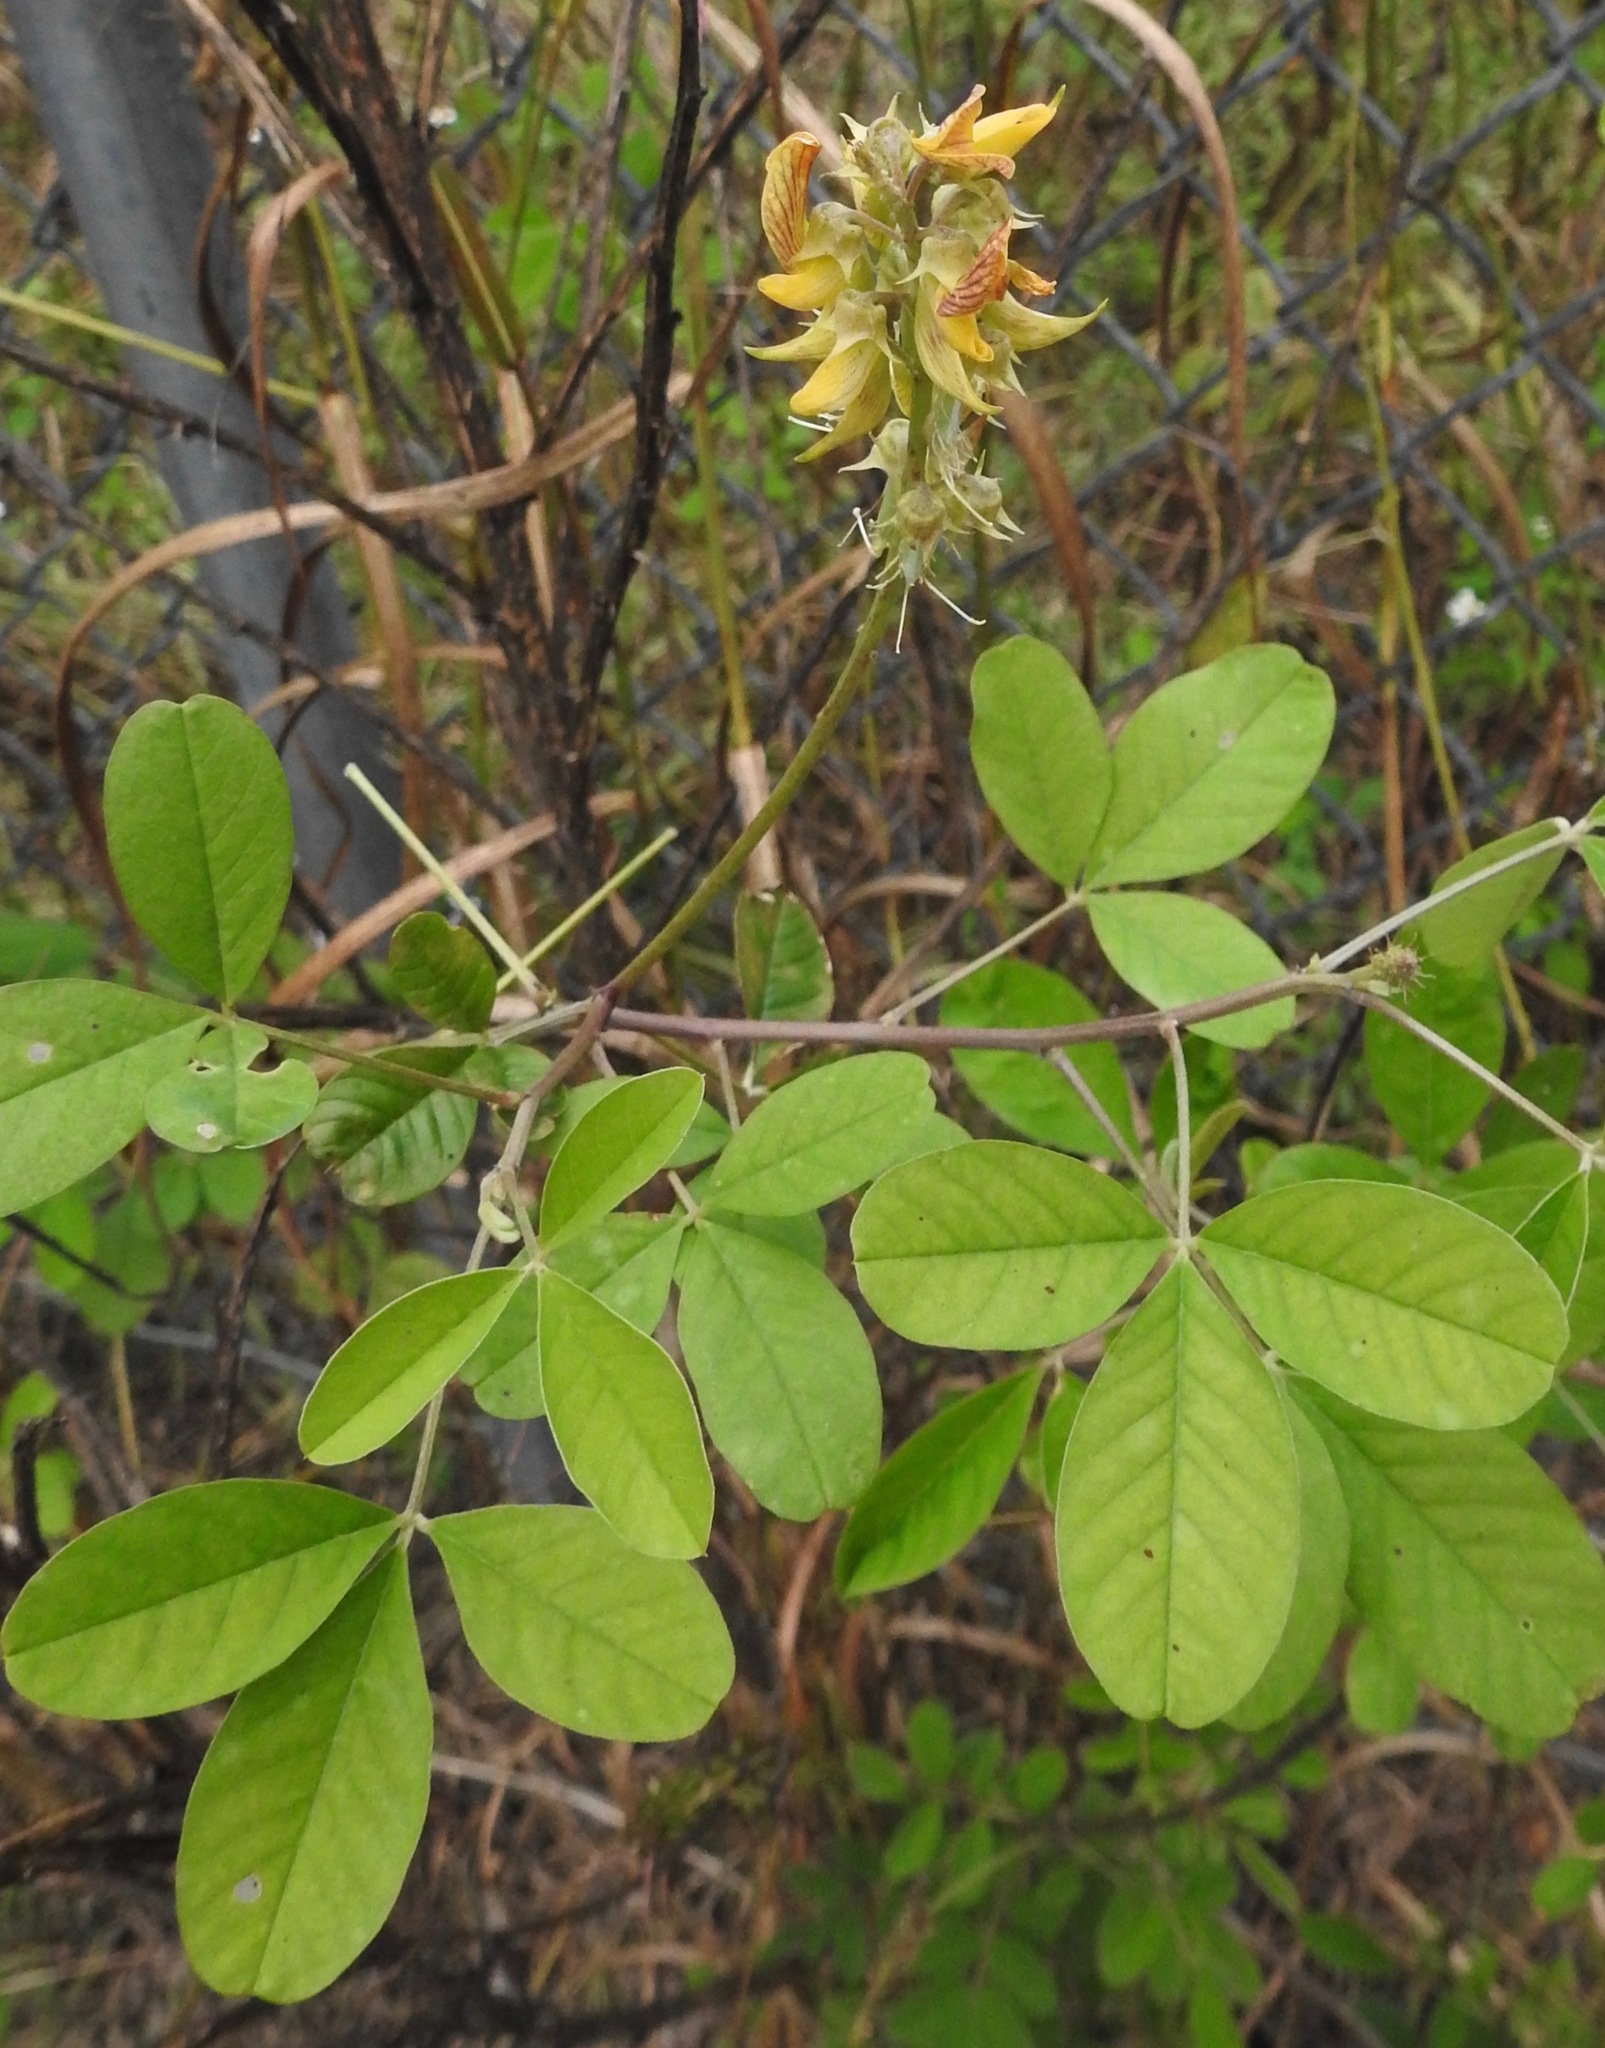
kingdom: Plantae
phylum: Tracheophyta
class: Magnoliopsida
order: Fabales
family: Fabaceae
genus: Crotalaria
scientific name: Crotalaria pallida
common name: Smooth rattlebox
